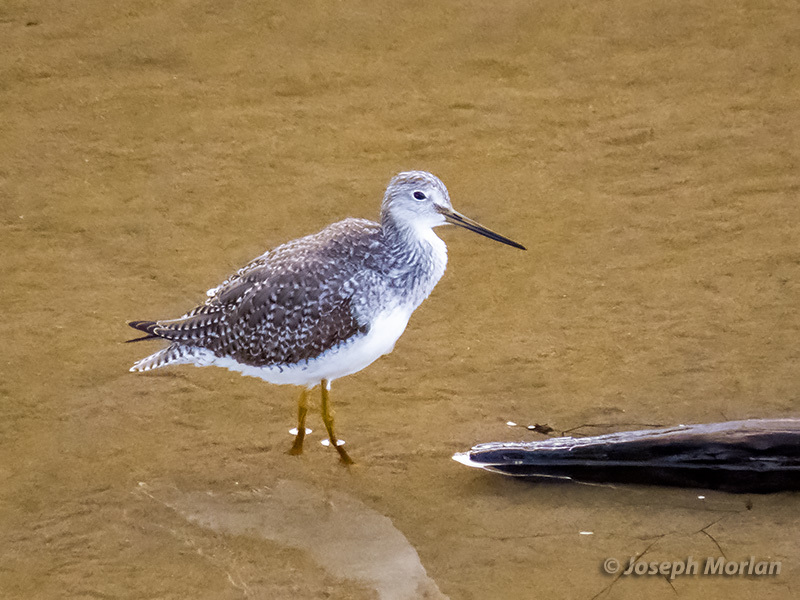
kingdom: Animalia
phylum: Chordata
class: Aves
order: Charadriiformes
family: Scolopacidae
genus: Tringa
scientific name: Tringa melanoleuca
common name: Greater yellowlegs
